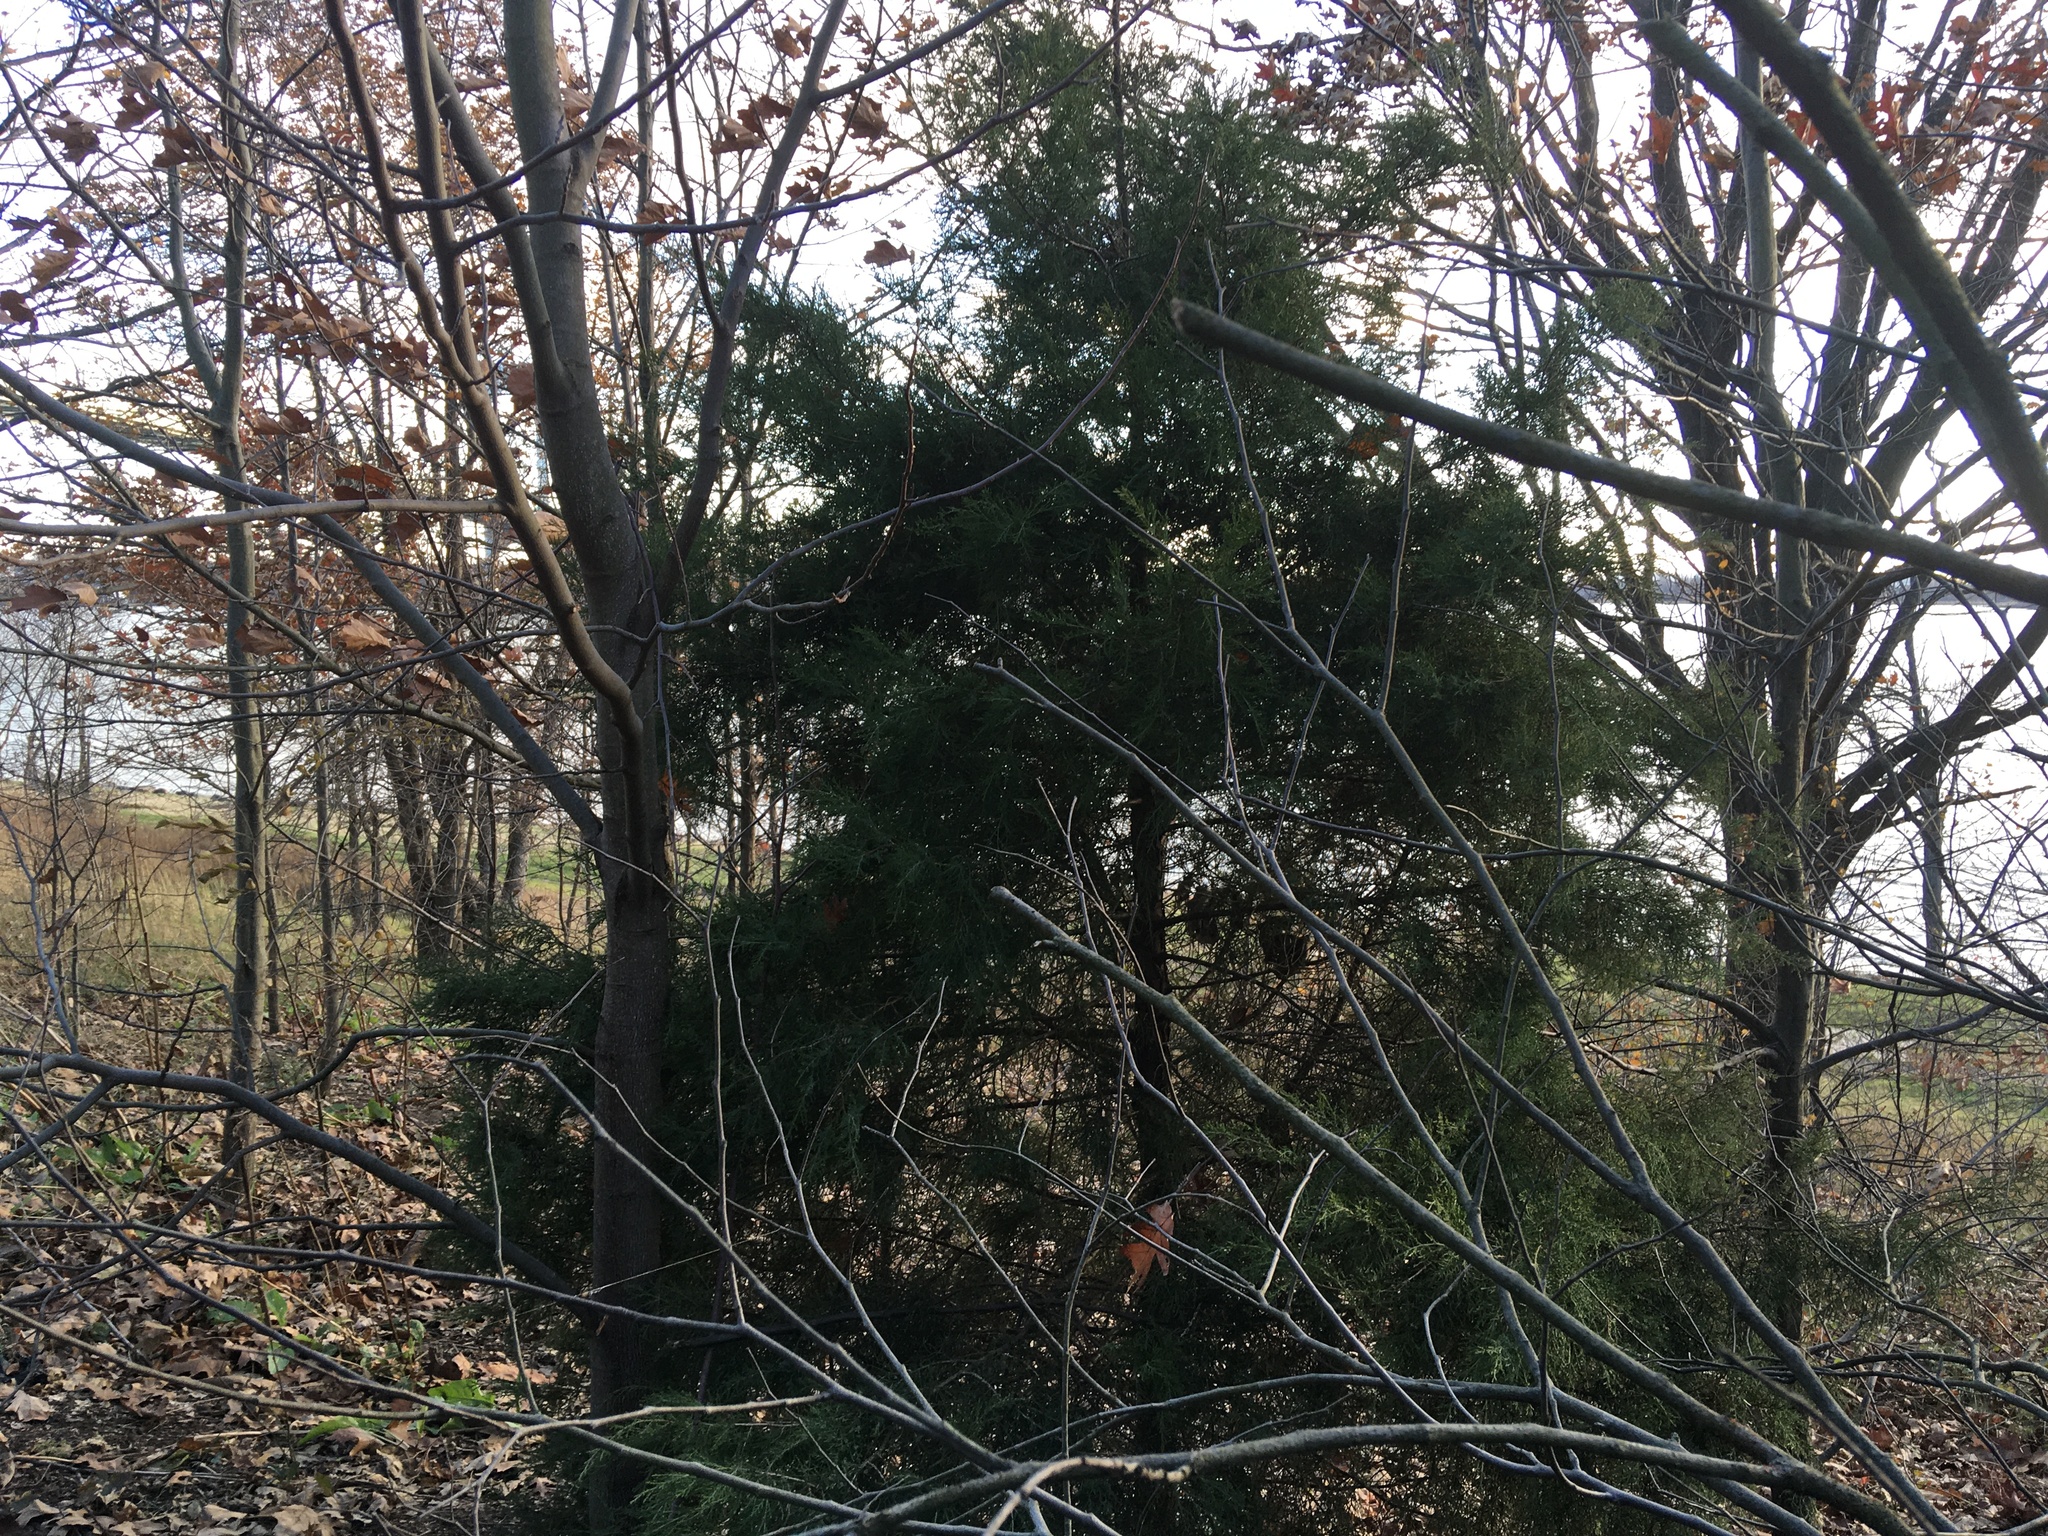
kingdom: Plantae
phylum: Tracheophyta
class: Pinopsida
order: Pinales
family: Cupressaceae
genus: Juniperus
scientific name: Juniperus virginiana
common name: Red juniper
